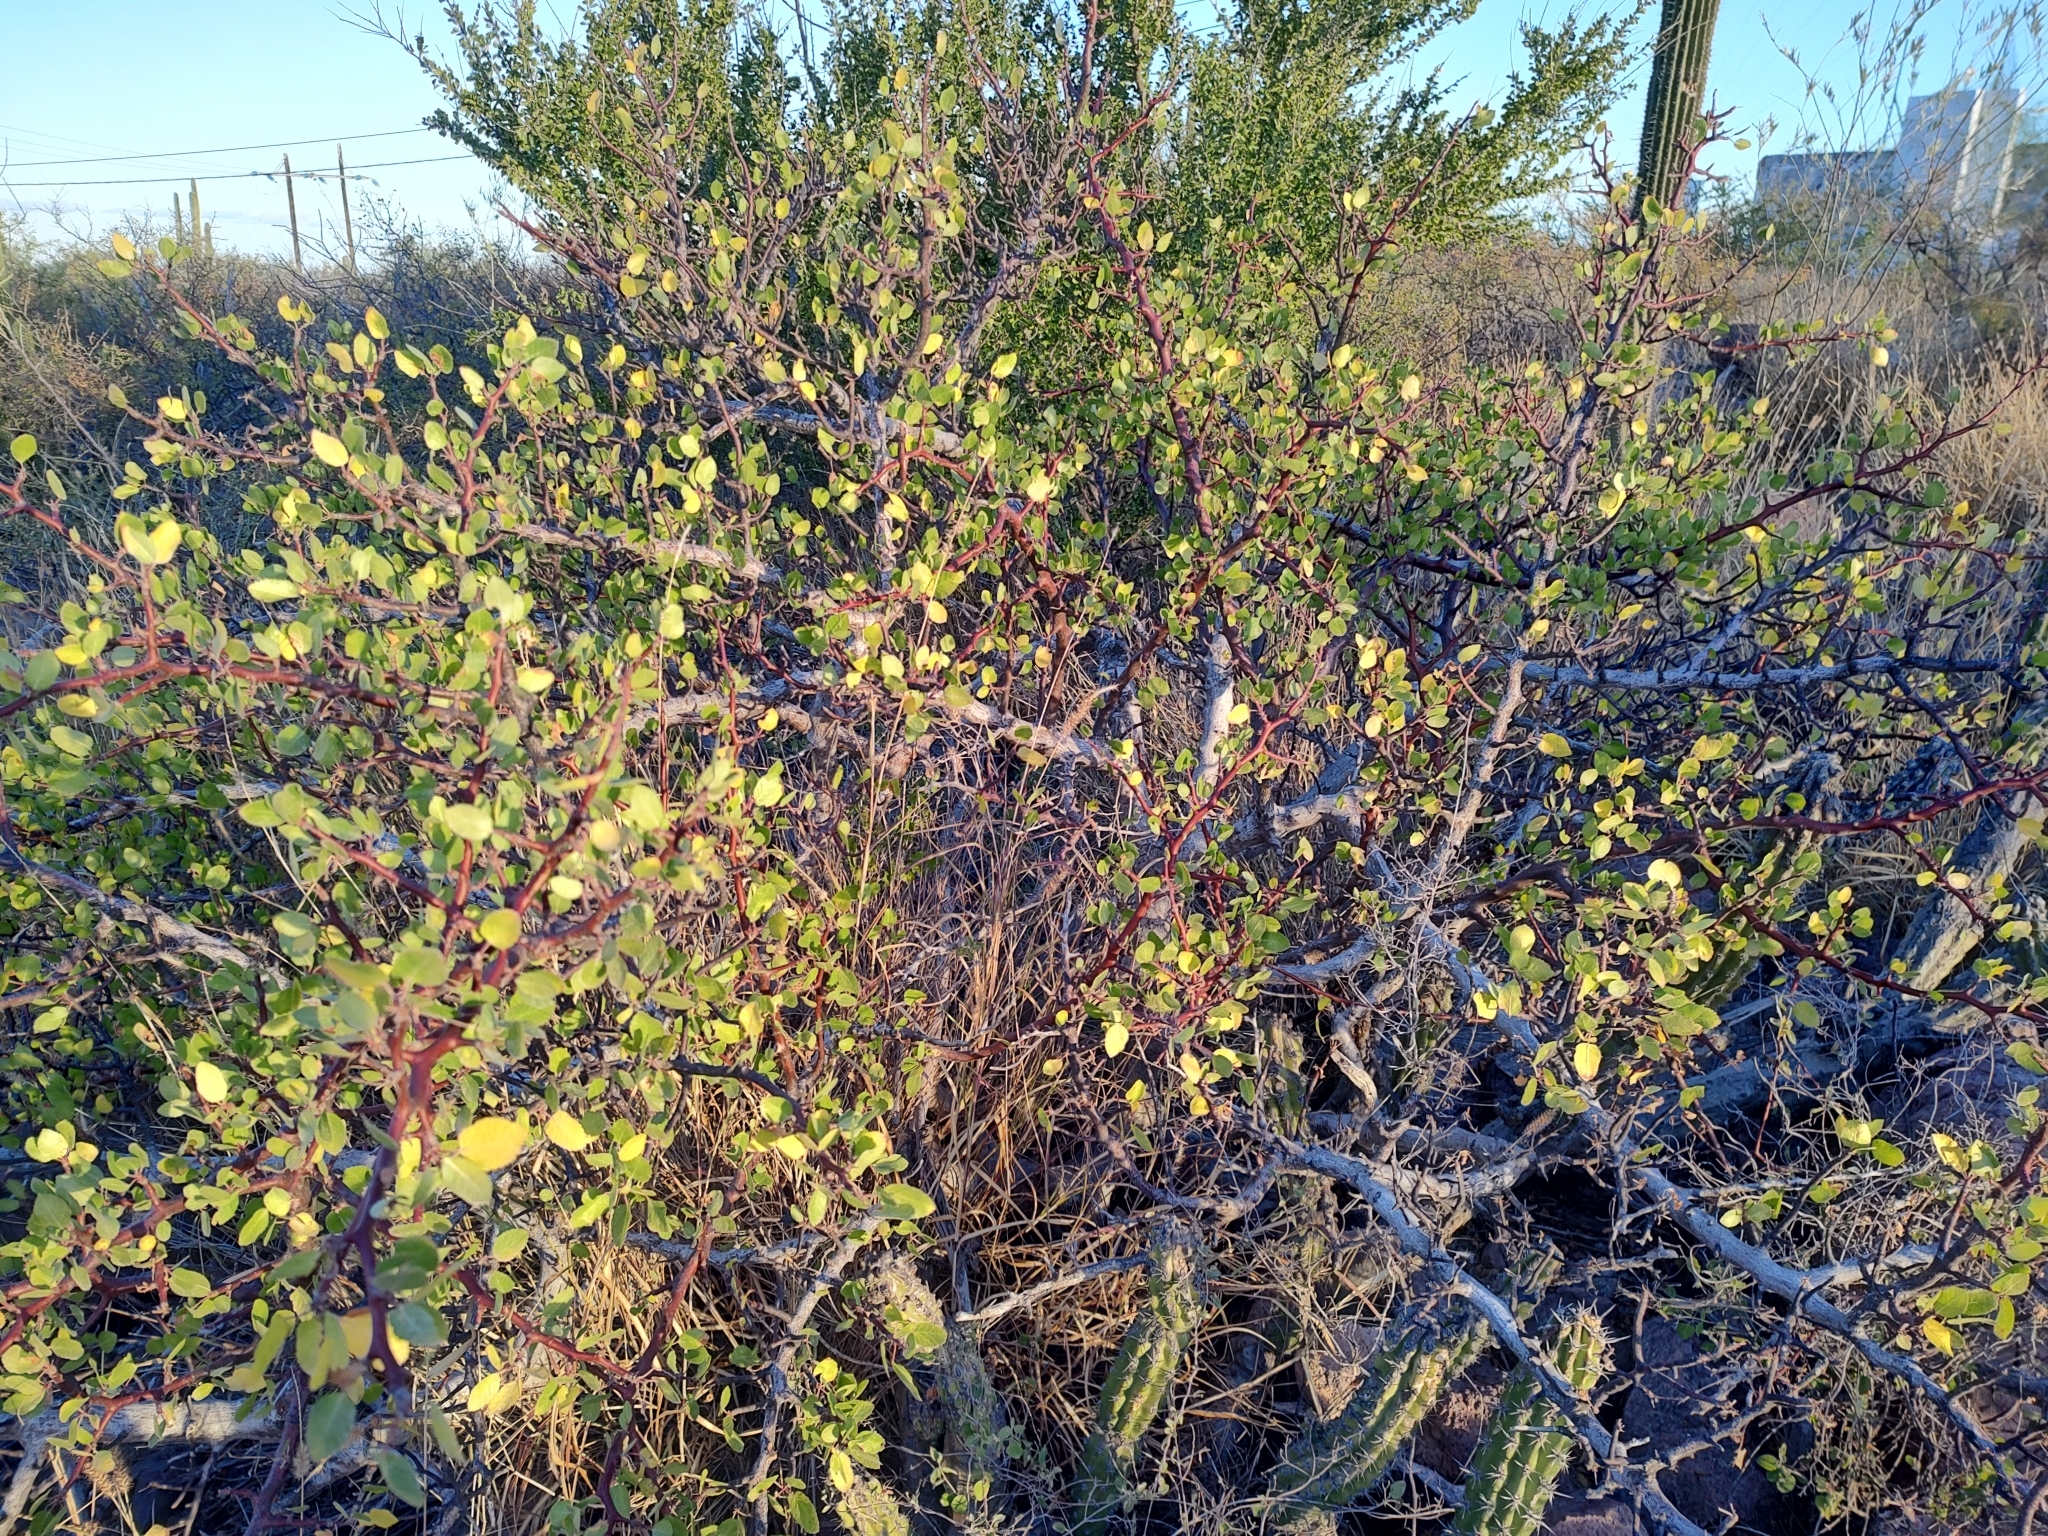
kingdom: Plantae
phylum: Tracheophyta
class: Magnoliopsida
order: Sapindales
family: Burseraceae
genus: Bursera
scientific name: Bursera epinnata
